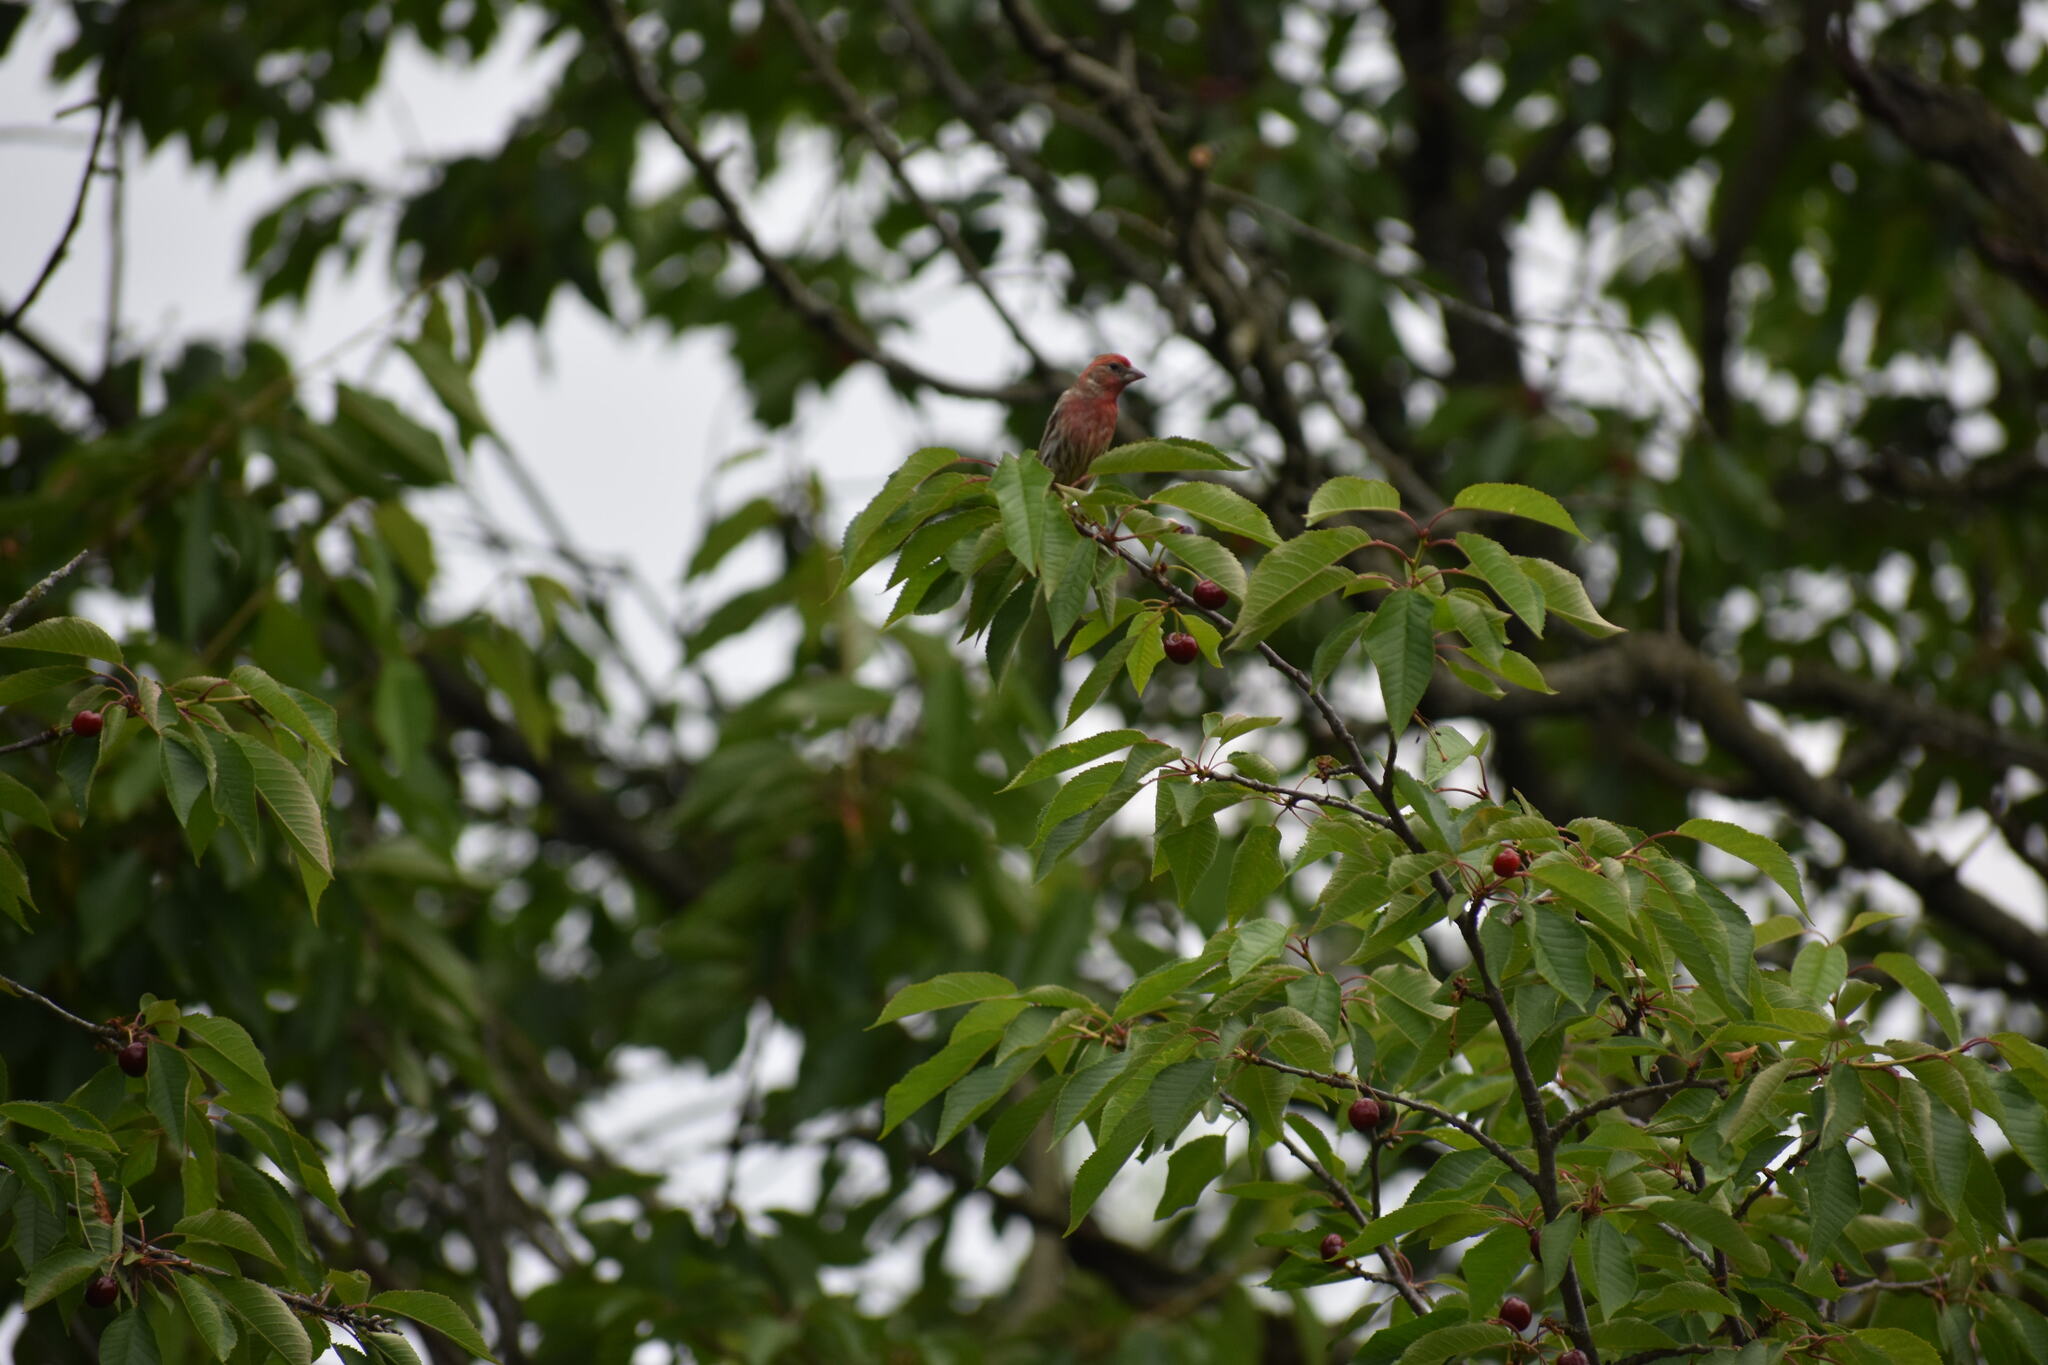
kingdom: Animalia
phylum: Chordata
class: Aves
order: Passeriformes
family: Fringillidae
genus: Haemorhous
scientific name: Haemorhous mexicanus
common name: House finch
